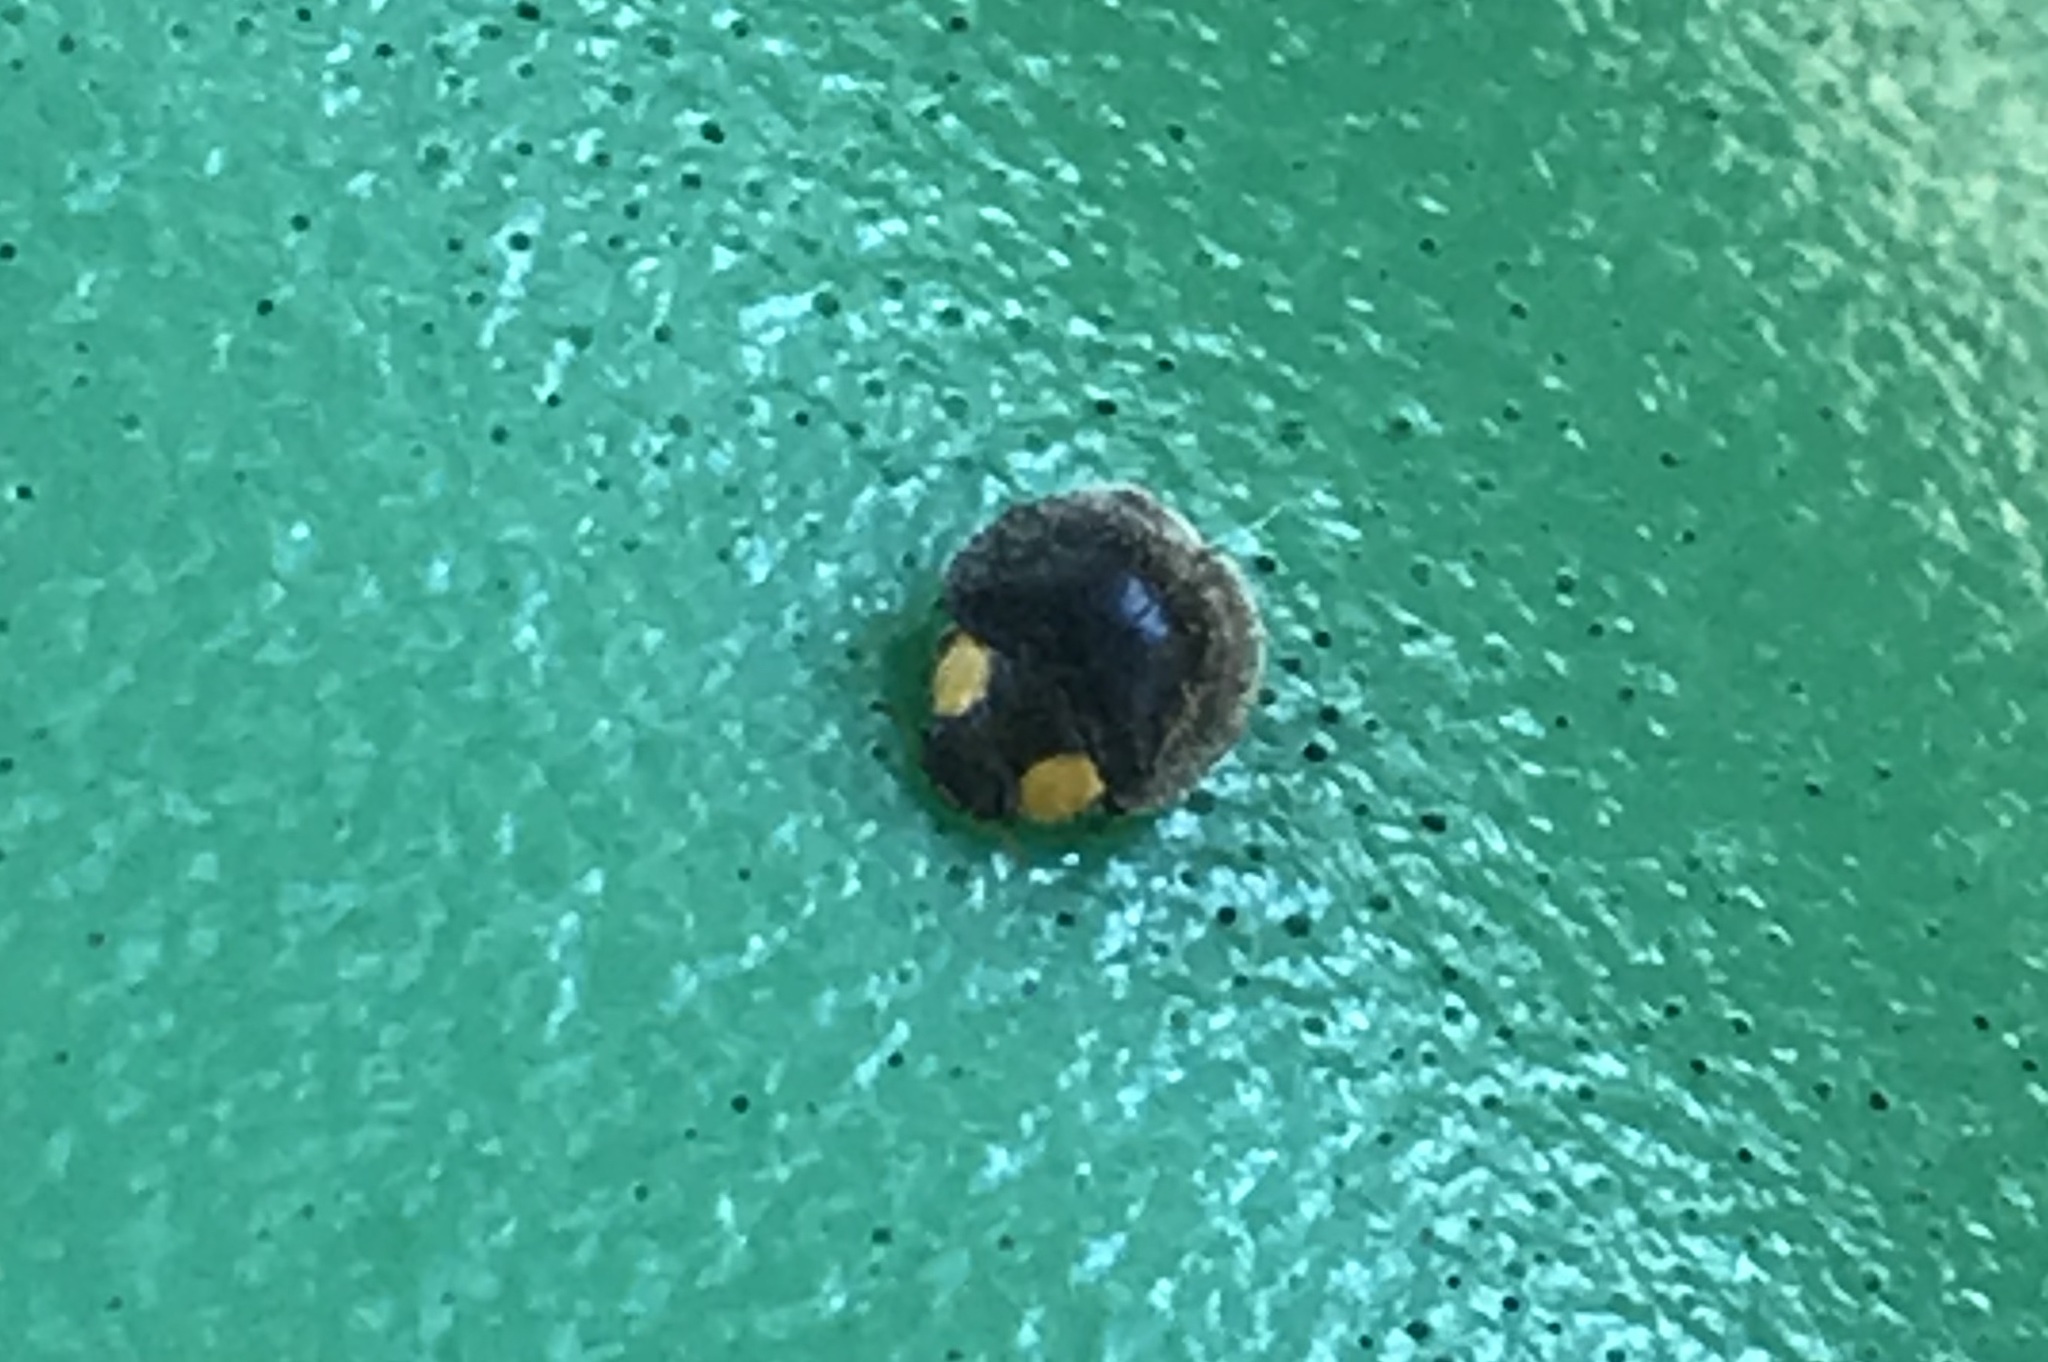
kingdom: Animalia
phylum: Arthropoda
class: Insecta
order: Coleoptera
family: Coccinellidae
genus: Scymnodes
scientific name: Scymnodes lividigaster
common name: Yellowshouldered lady beetle
